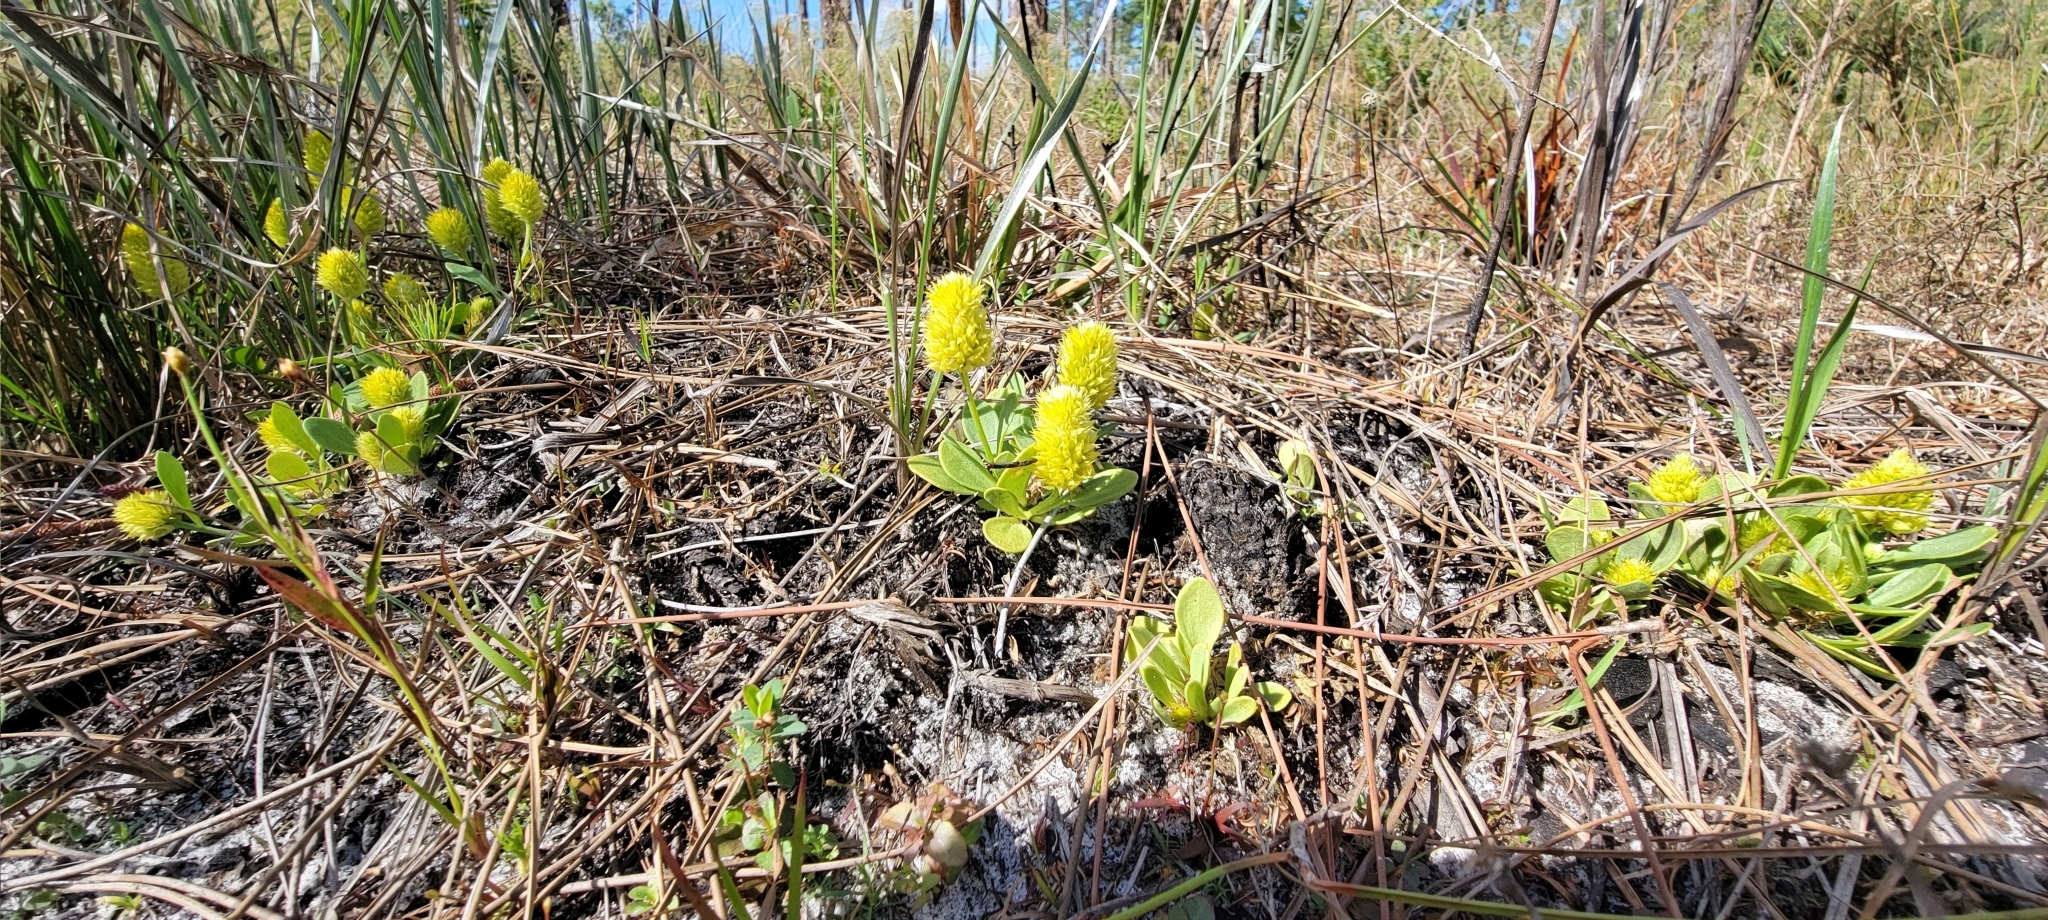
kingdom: Plantae
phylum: Tracheophyta
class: Magnoliopsida
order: Fabales
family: Polygalaceae
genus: Polygala
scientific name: Polygala nana
